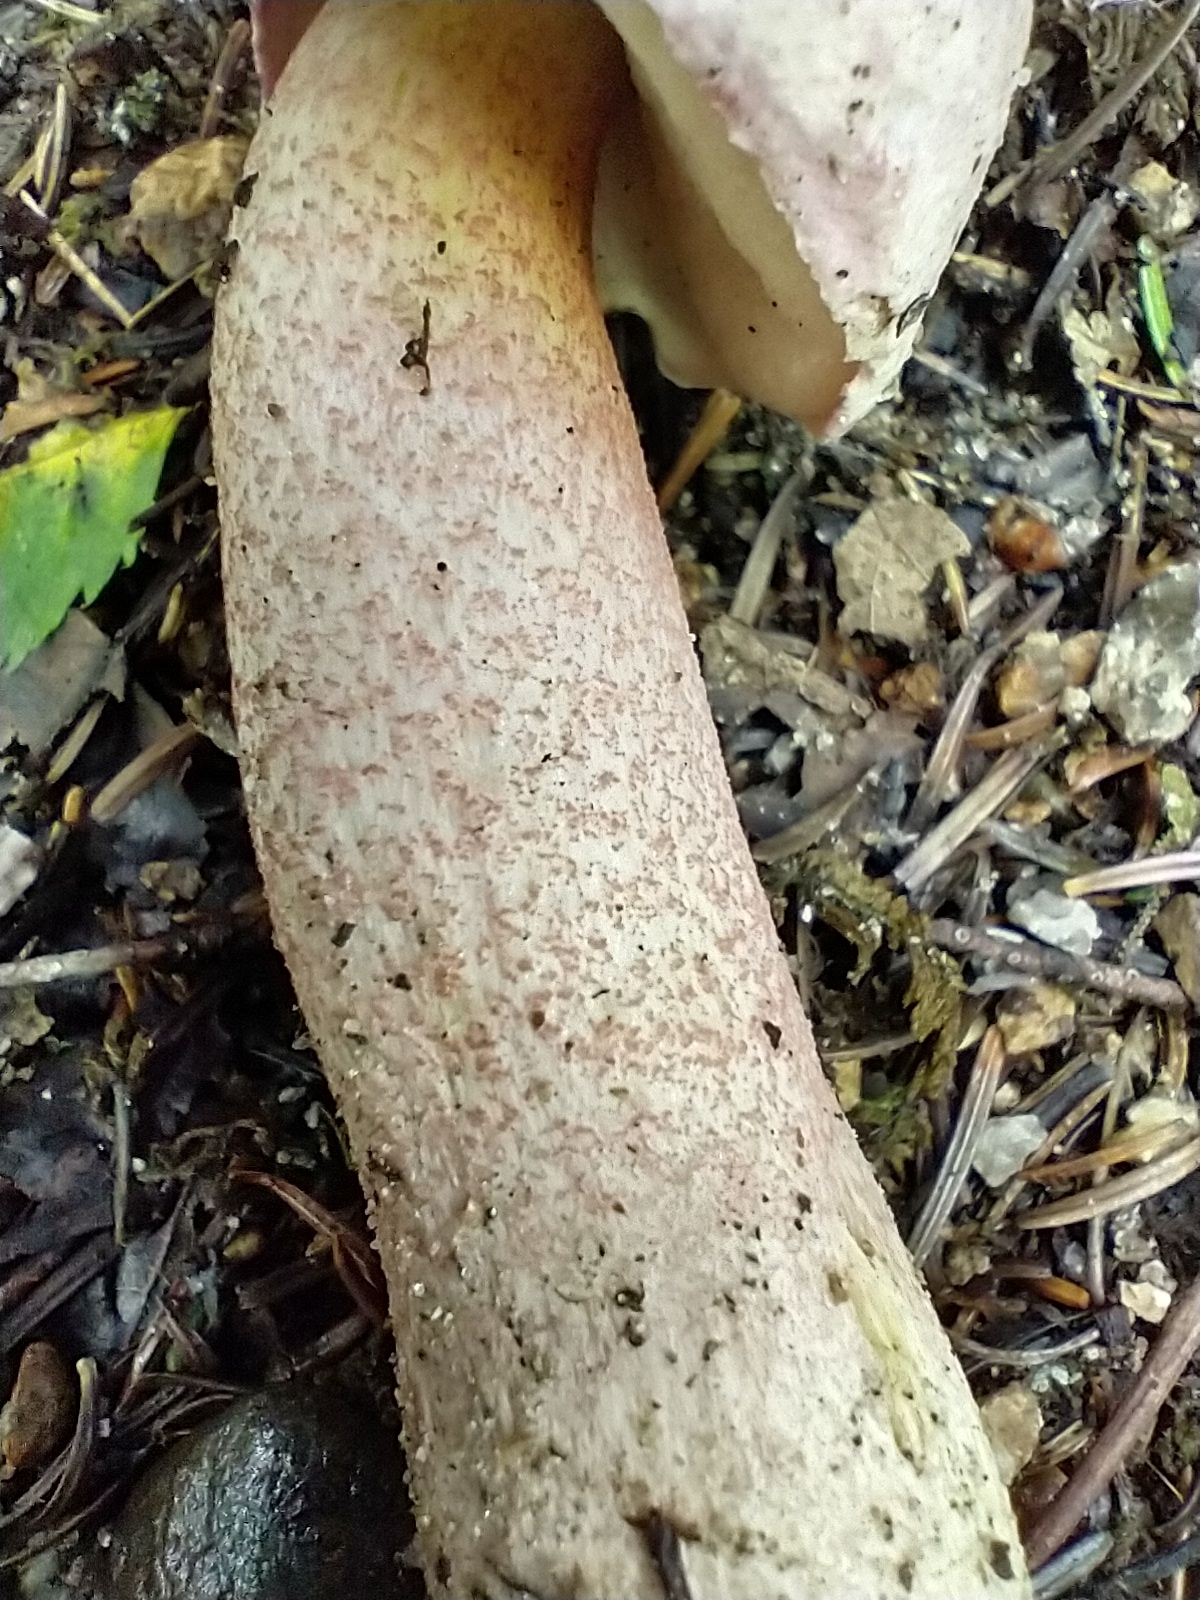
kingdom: Fungi
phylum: Basidiomycota
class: Agaricomycetes
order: Boletales
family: Boletaceae
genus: Harrya
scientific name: Harrya chromipes
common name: Chrome-footed bolete
